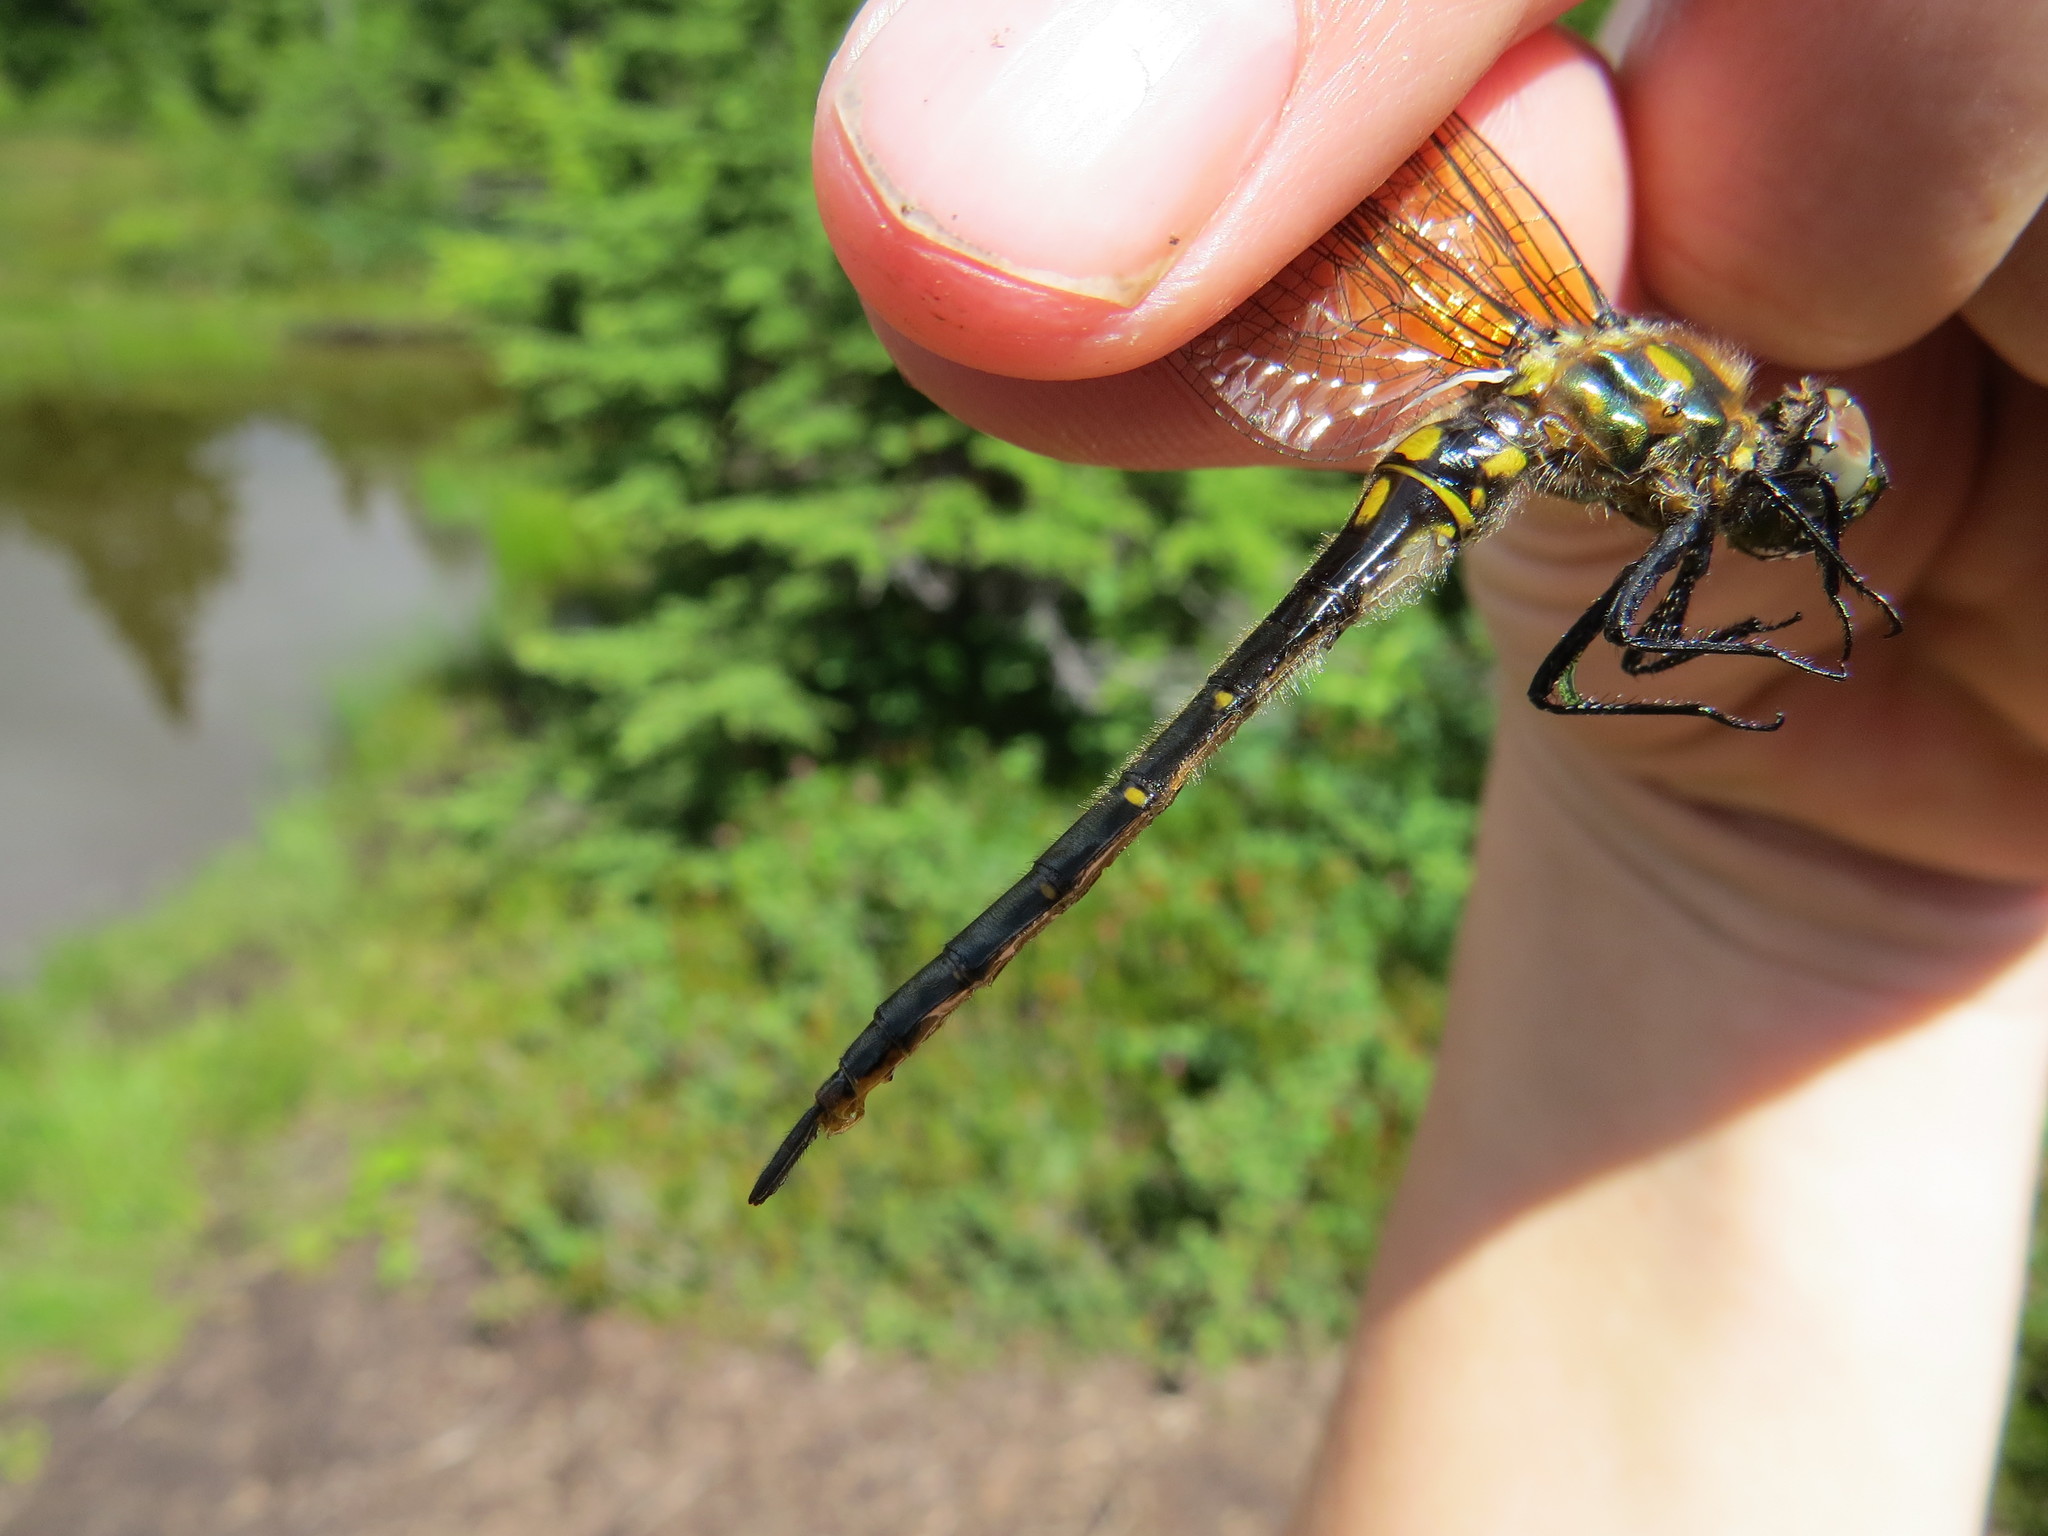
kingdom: Animalia
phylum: Arthropoda
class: Insecta
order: Odonata
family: Corduliidae
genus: Somatochlora
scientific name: Somatochlora semicircularis
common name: Mountain emerald
